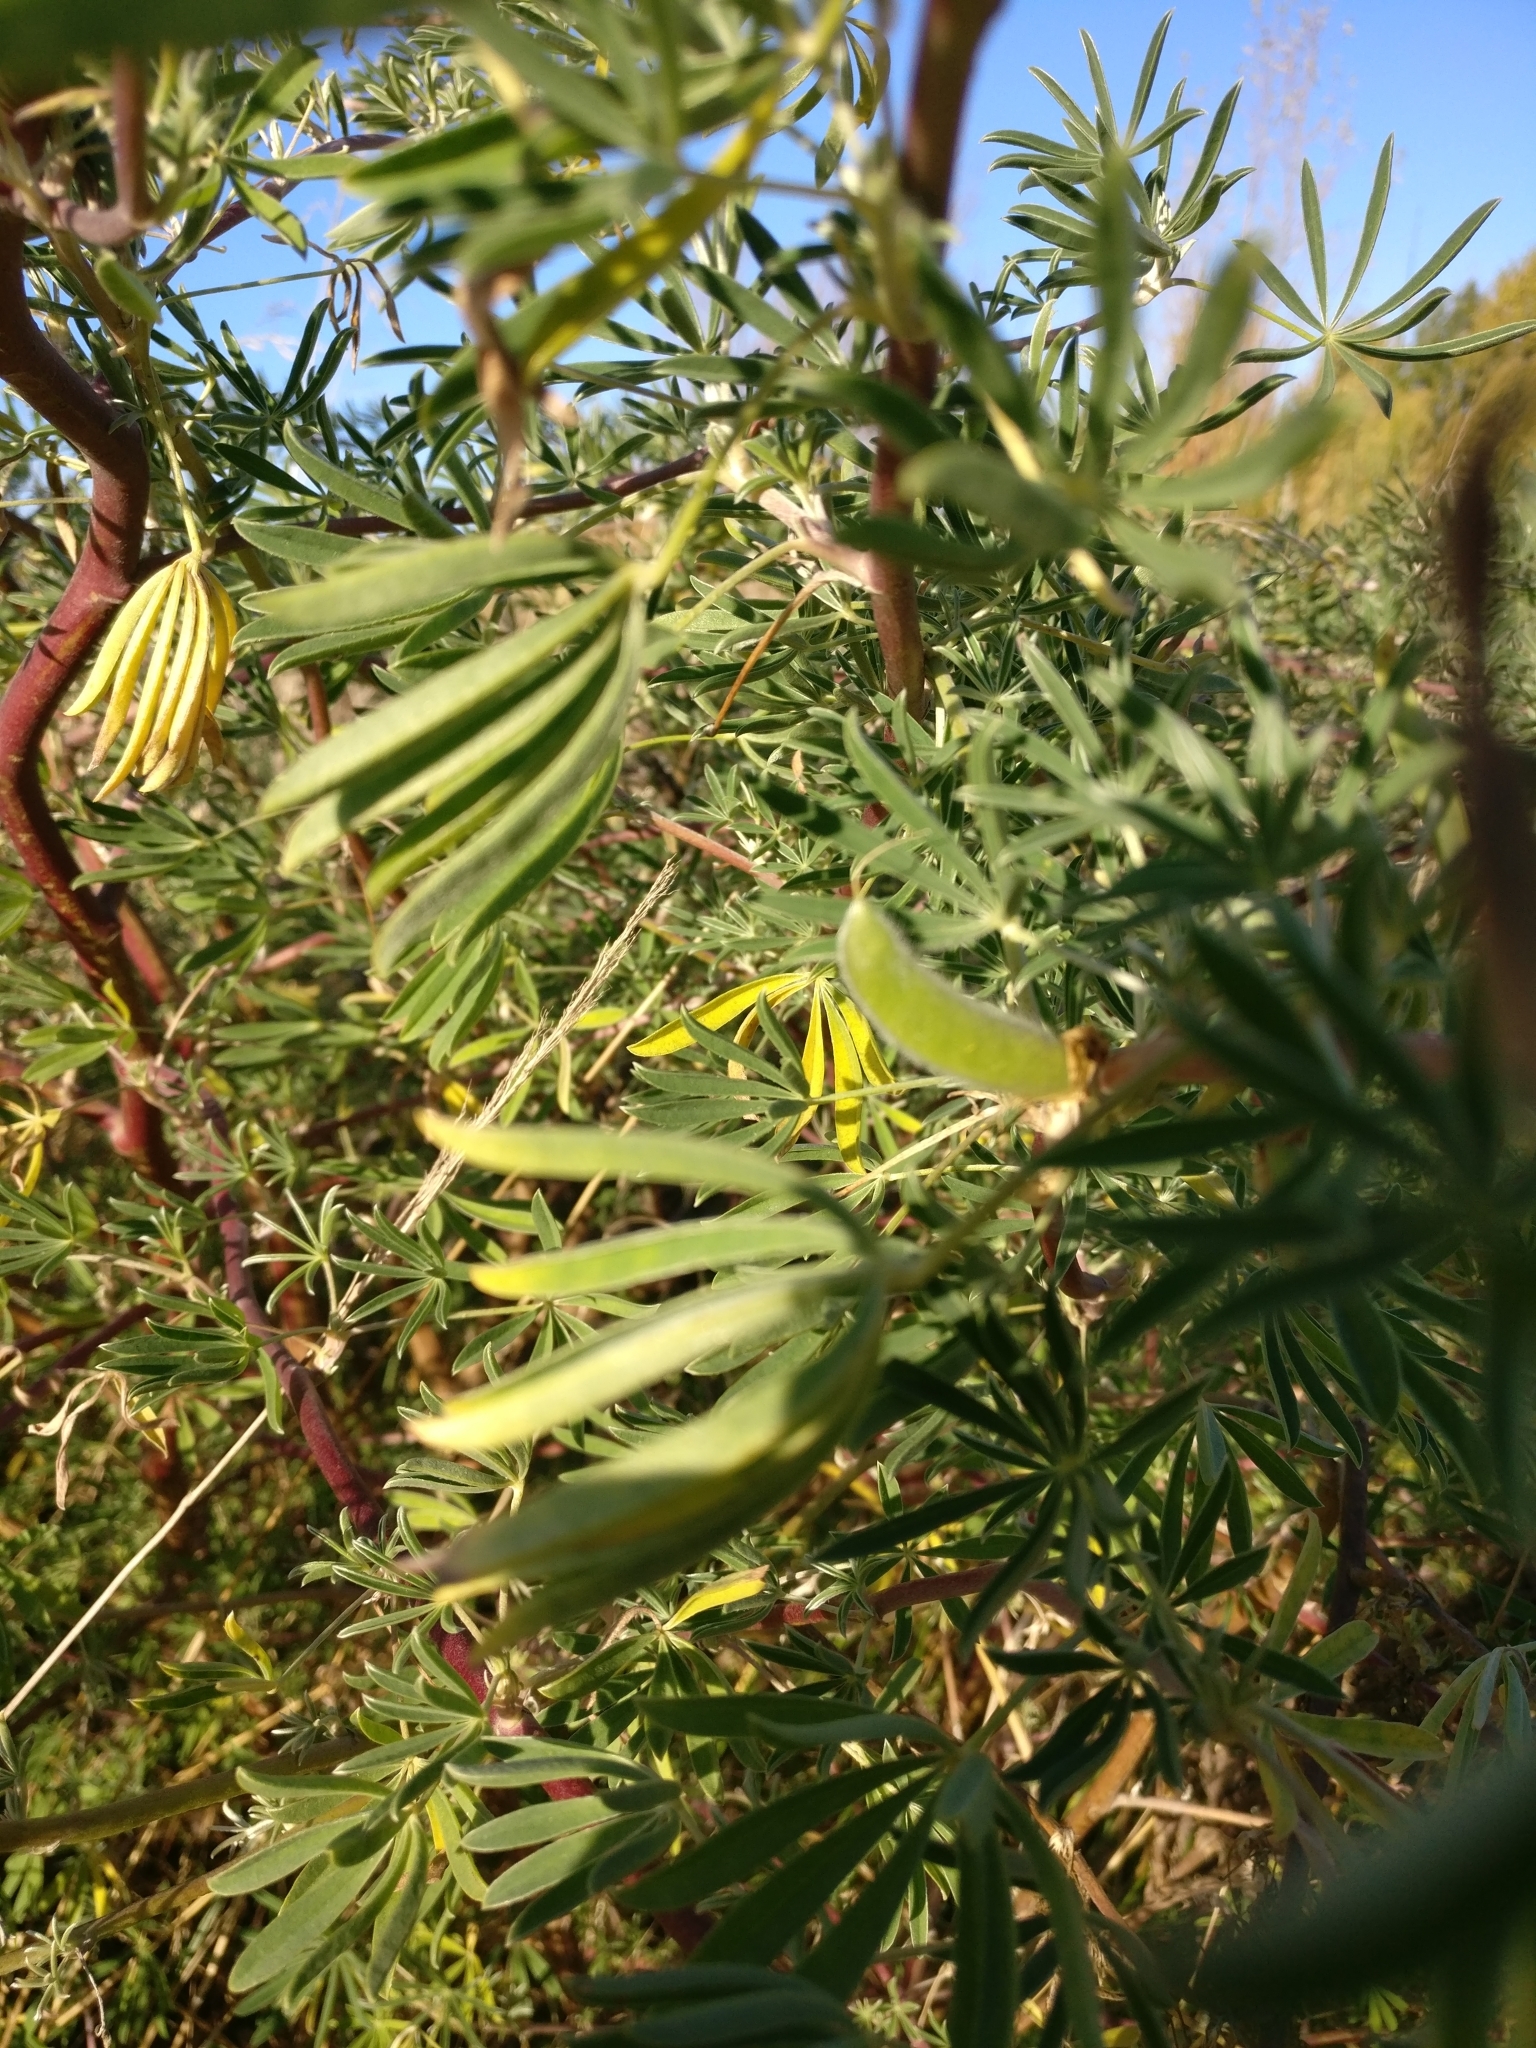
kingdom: Plantae
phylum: Tracheophyta
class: Magnoliopsida
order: Fabales
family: Fabaceae
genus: Lupinus
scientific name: Lupinus arboreus
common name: Yellow bush lupine
